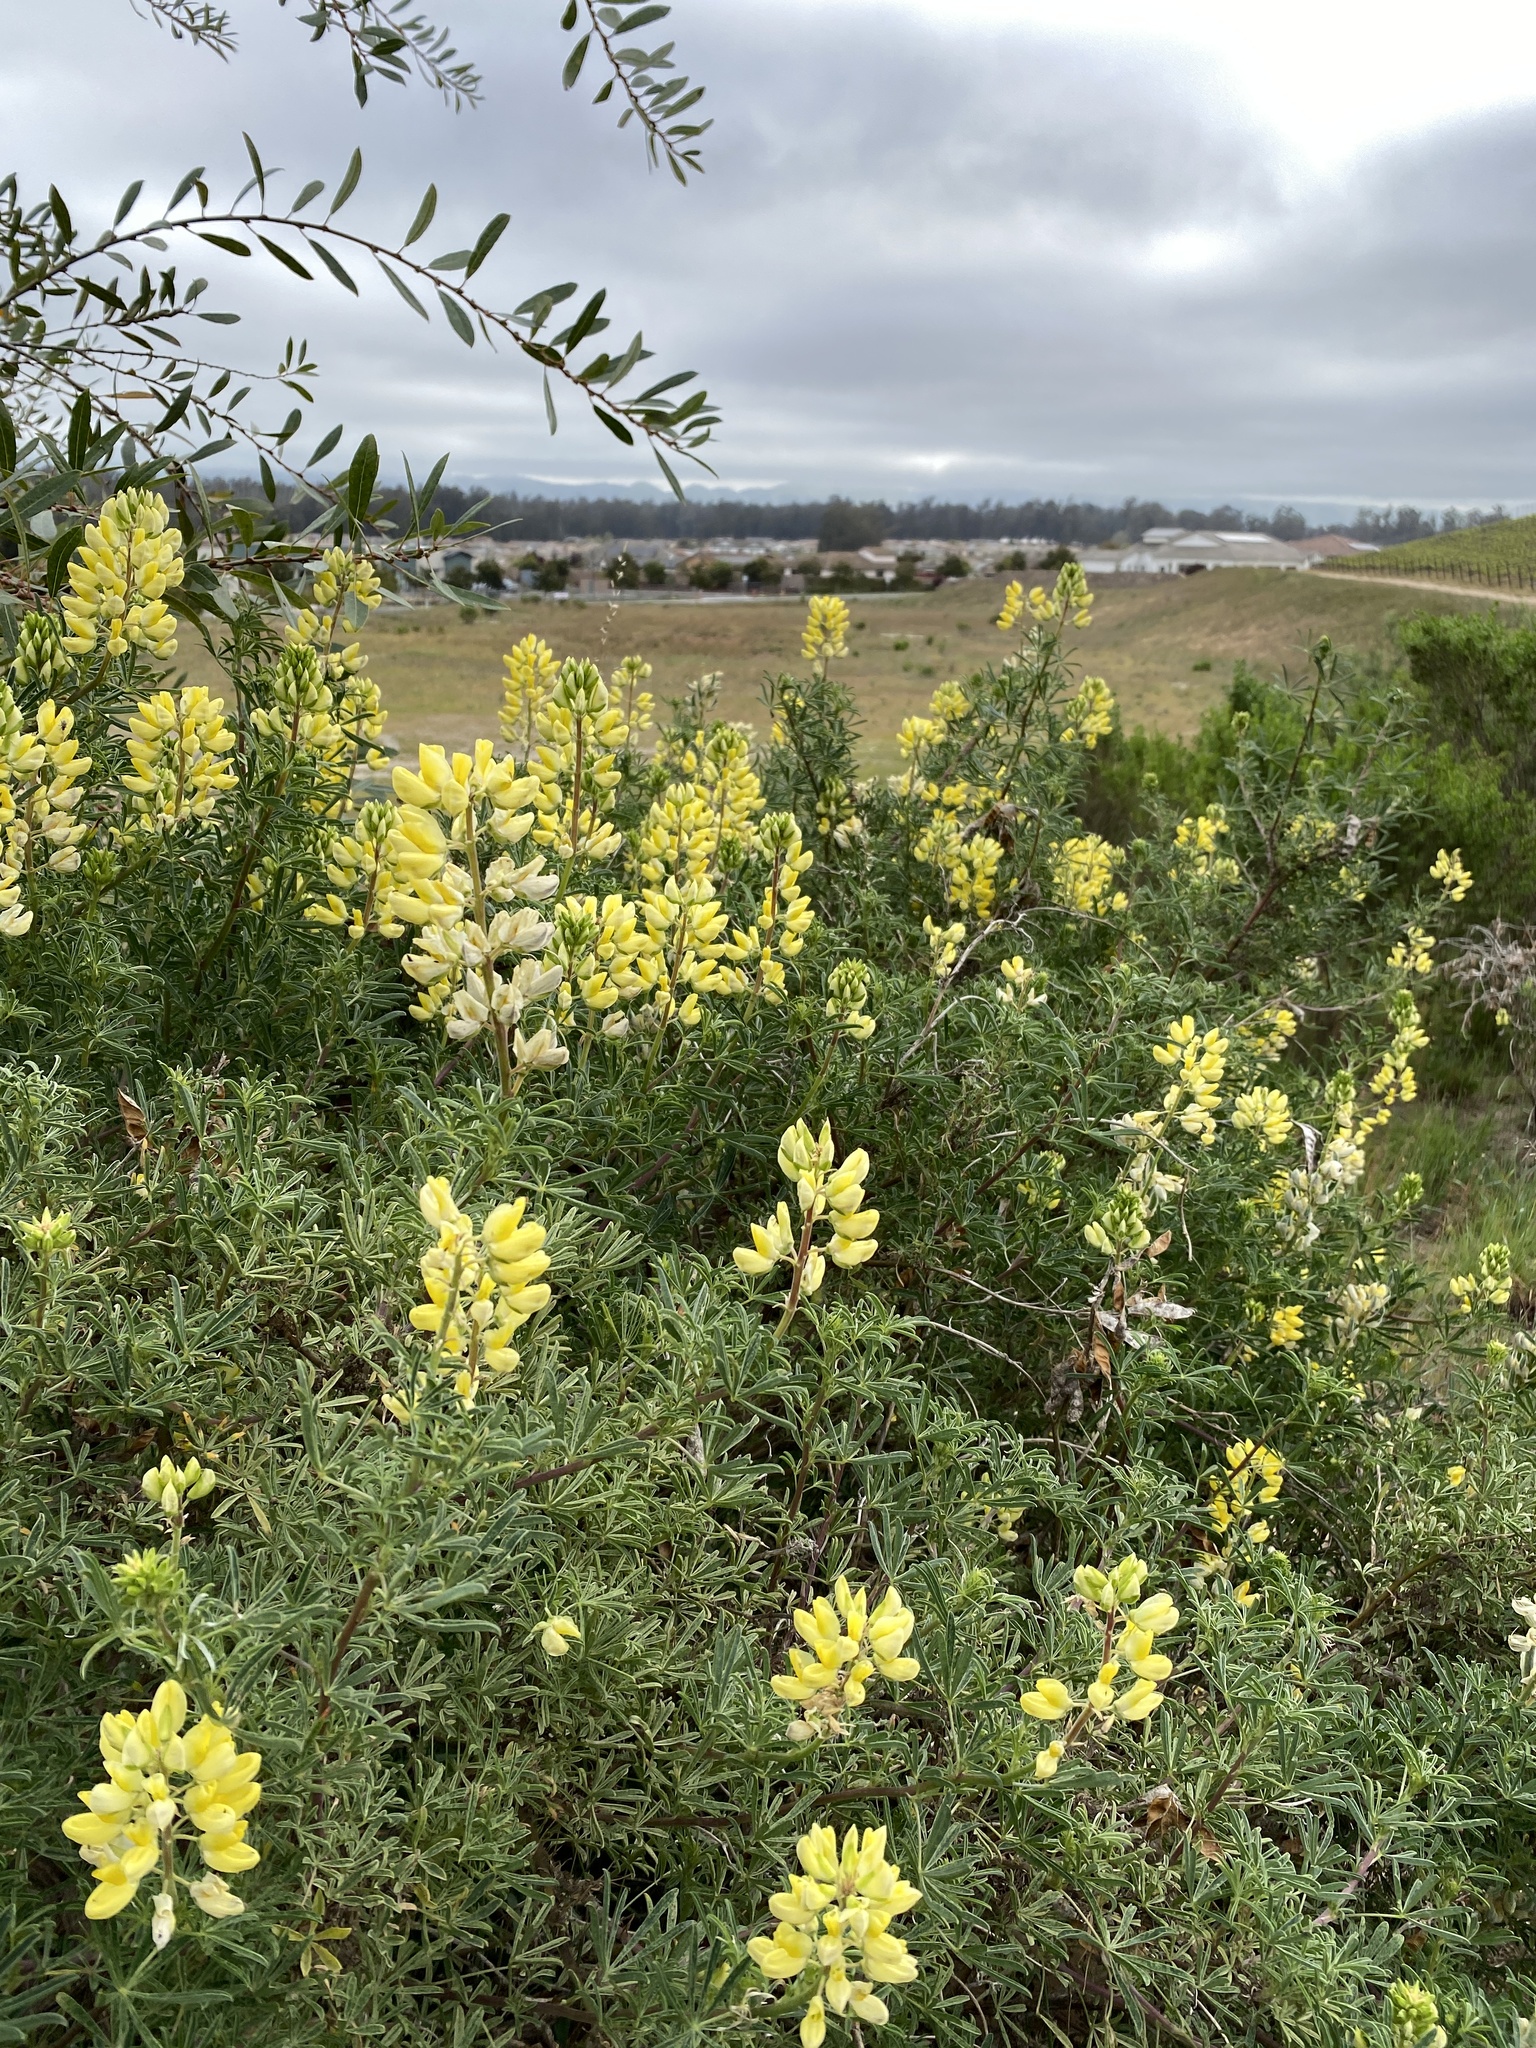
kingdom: Plantae
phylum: Tracheophyta
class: Magnoliopsida
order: Fabales
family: Fabaceae
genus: Lupinus
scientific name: Lupinus arboreus
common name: Yellow bush lupine
